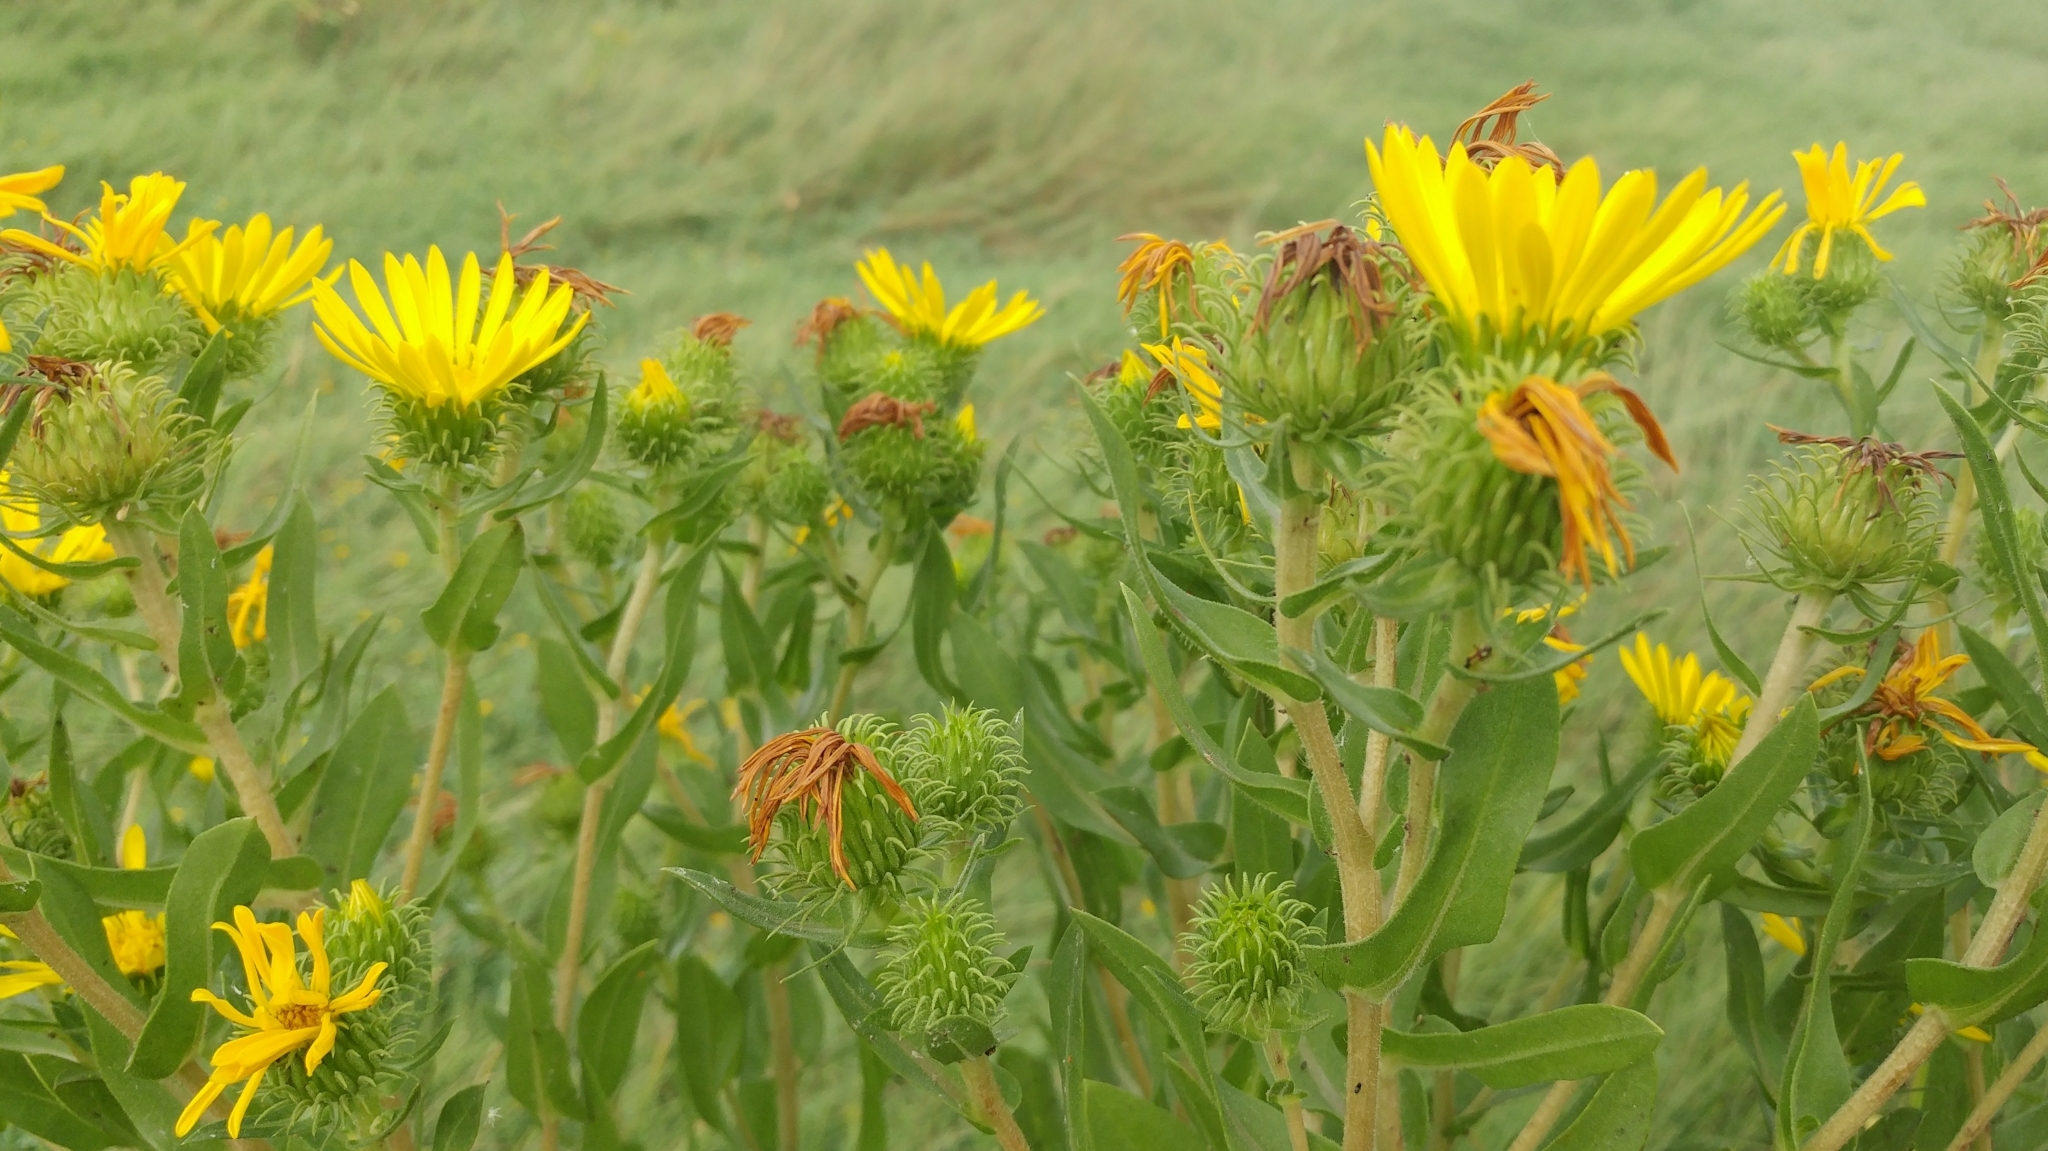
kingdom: Plantae
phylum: Tracheophyta
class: Magnoliopsida
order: Asterales
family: Asteraceae
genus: Grindelia
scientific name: Grindelia integrifolia
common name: Puget sound gumweed
